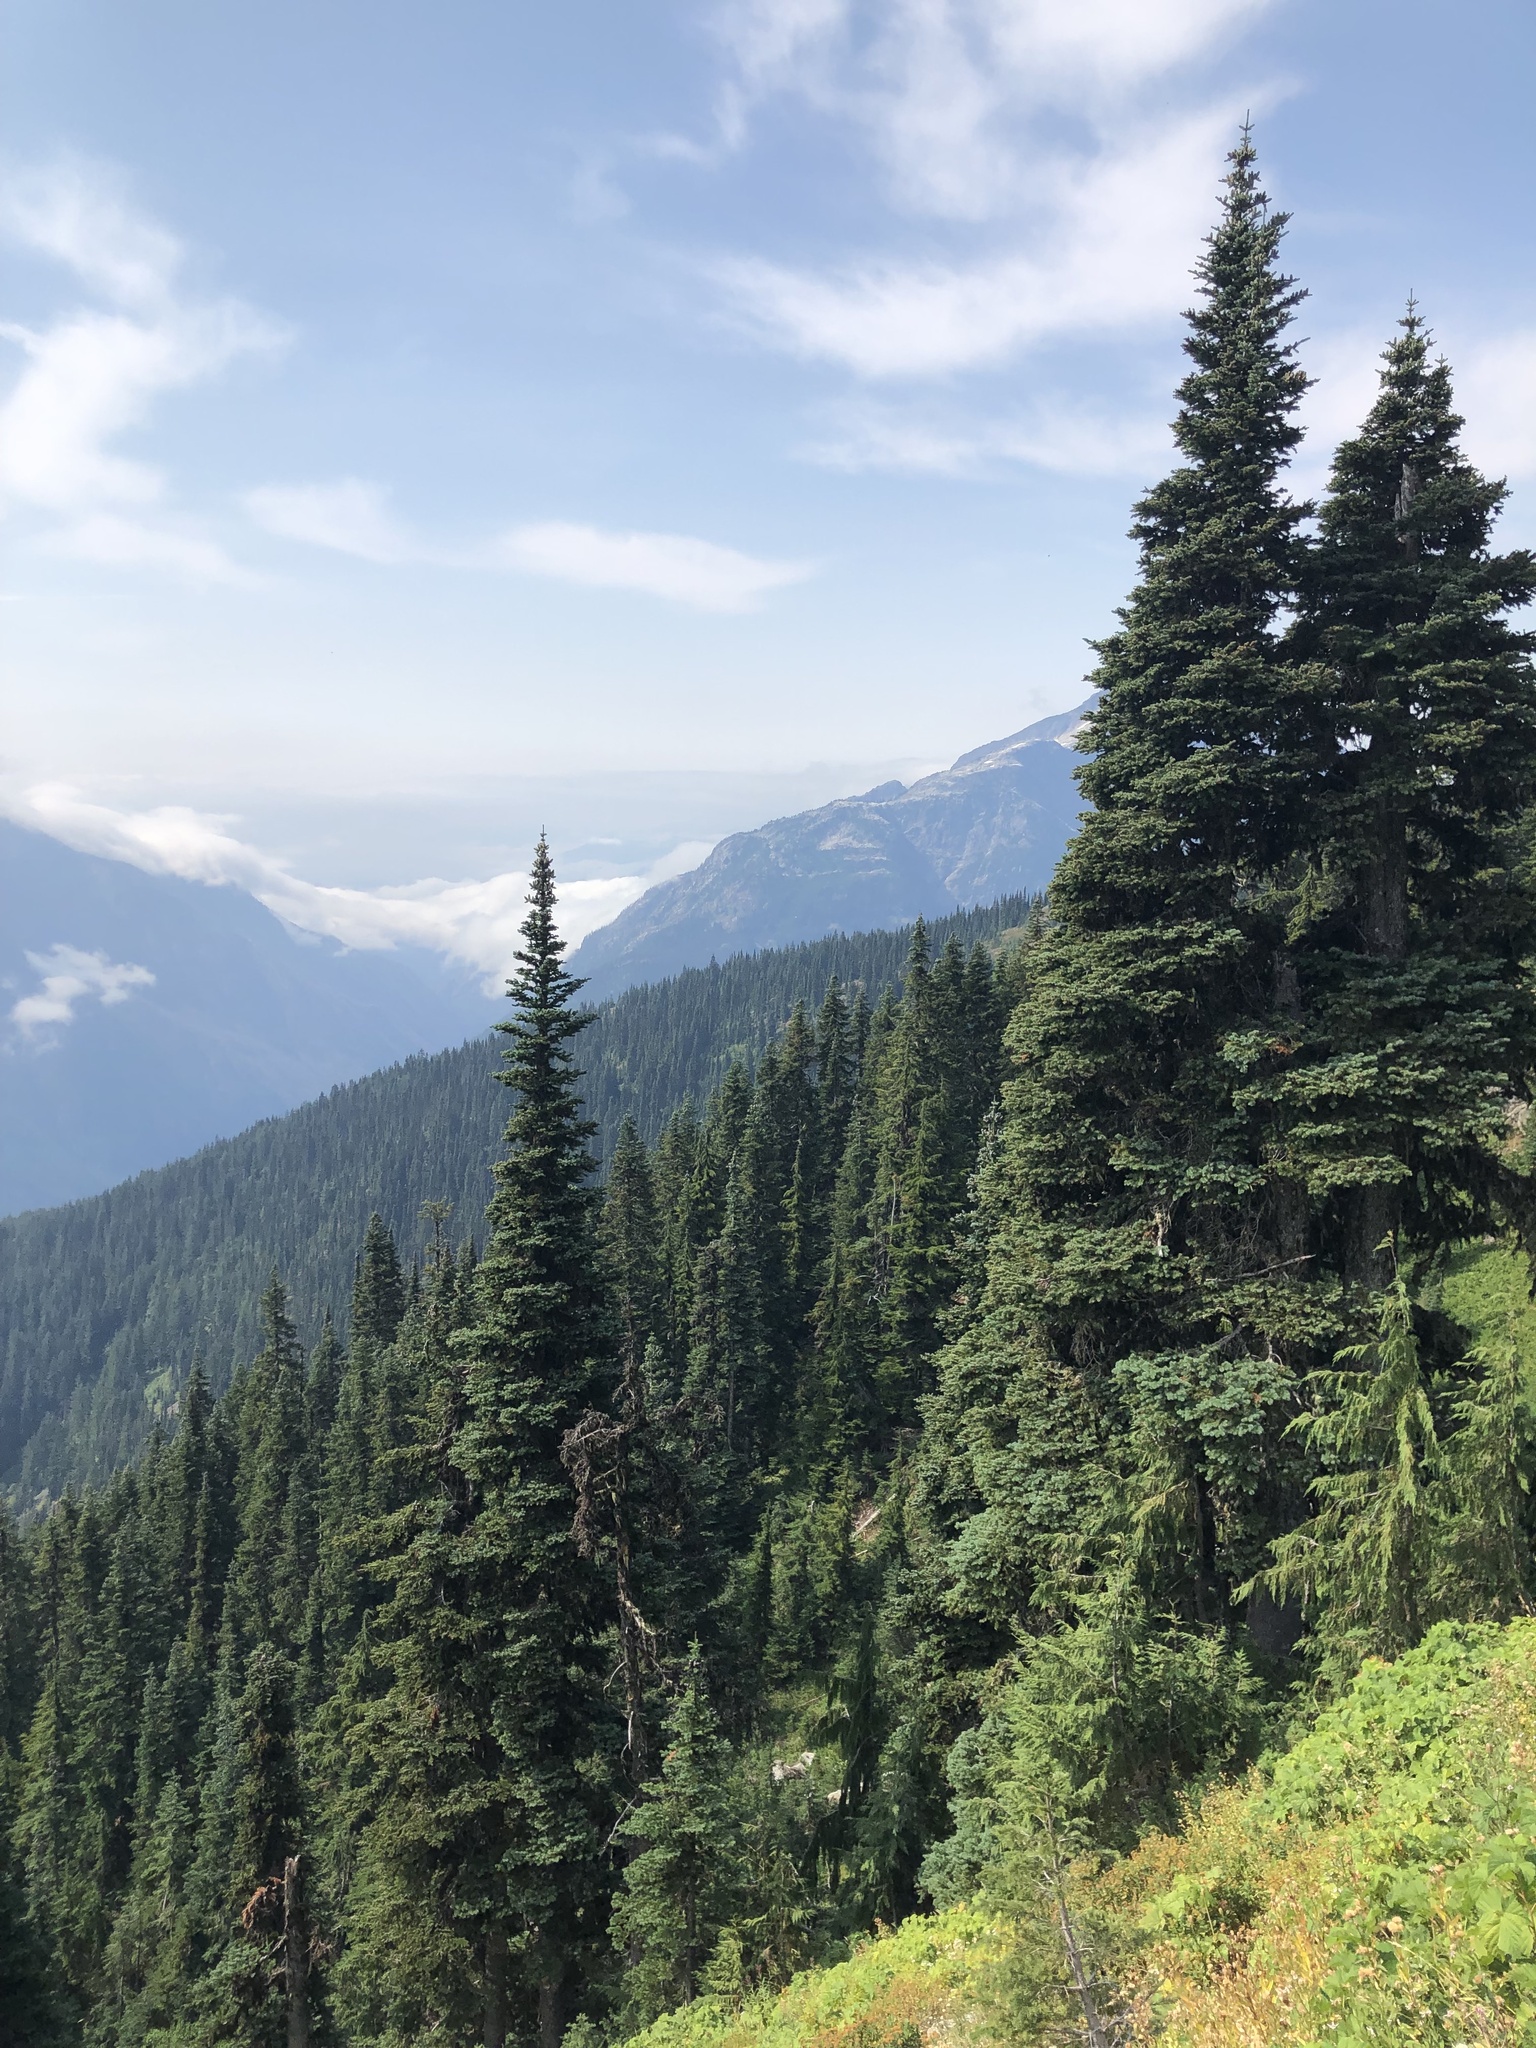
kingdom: Plantae
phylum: Tracheophyta
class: Pinopsida
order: Pinales
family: Pinaceae
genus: Abies
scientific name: Abies lasiocarpa
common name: Subalpine fir
